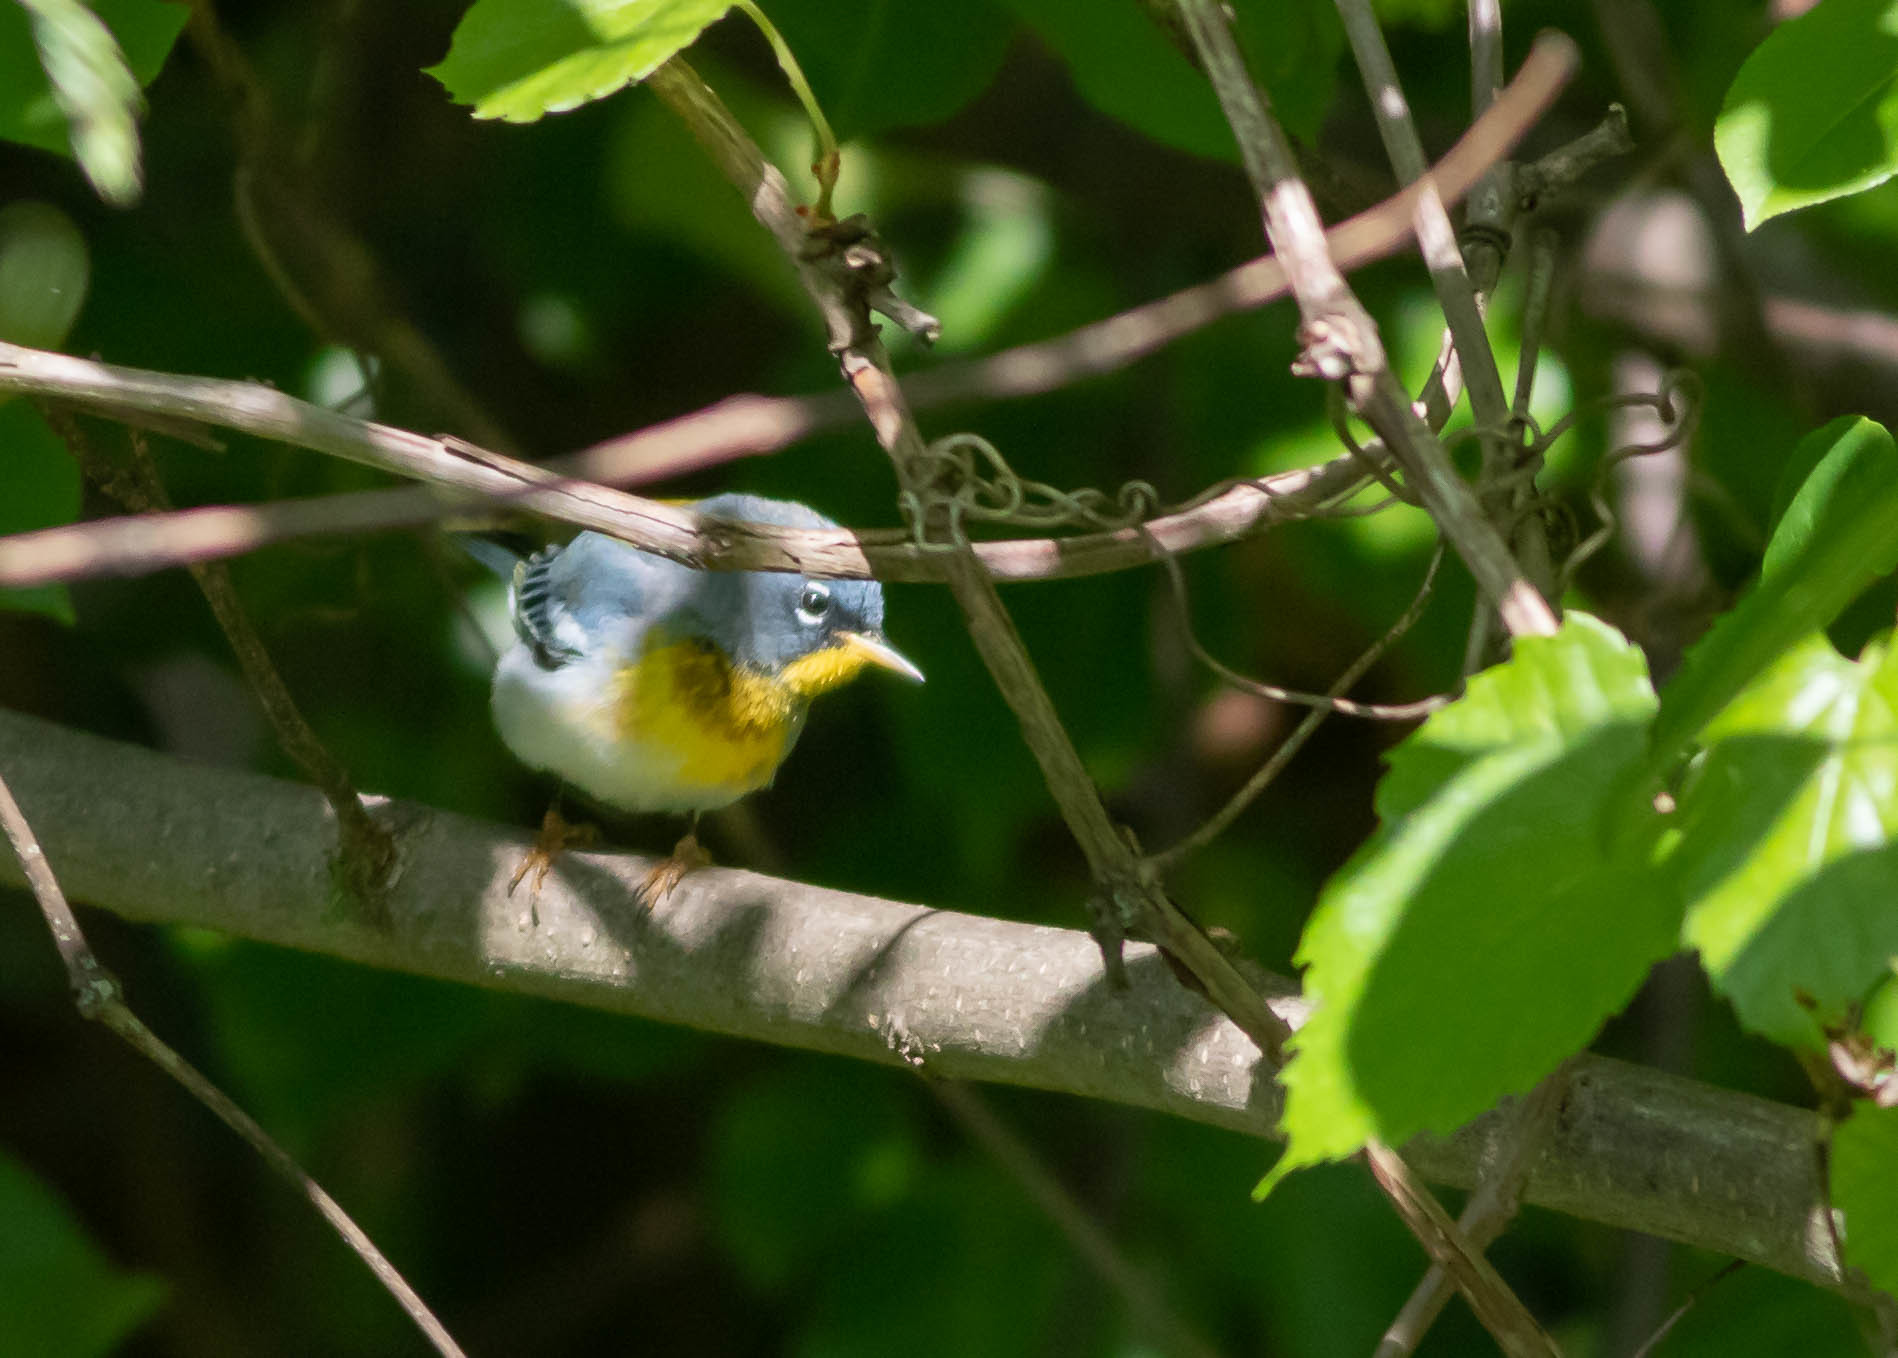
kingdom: Animalia
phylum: Chordata
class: Aves
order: Passeriformes
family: Parulidae
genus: Setophaga
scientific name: Setophaga americana
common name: Northern parula
